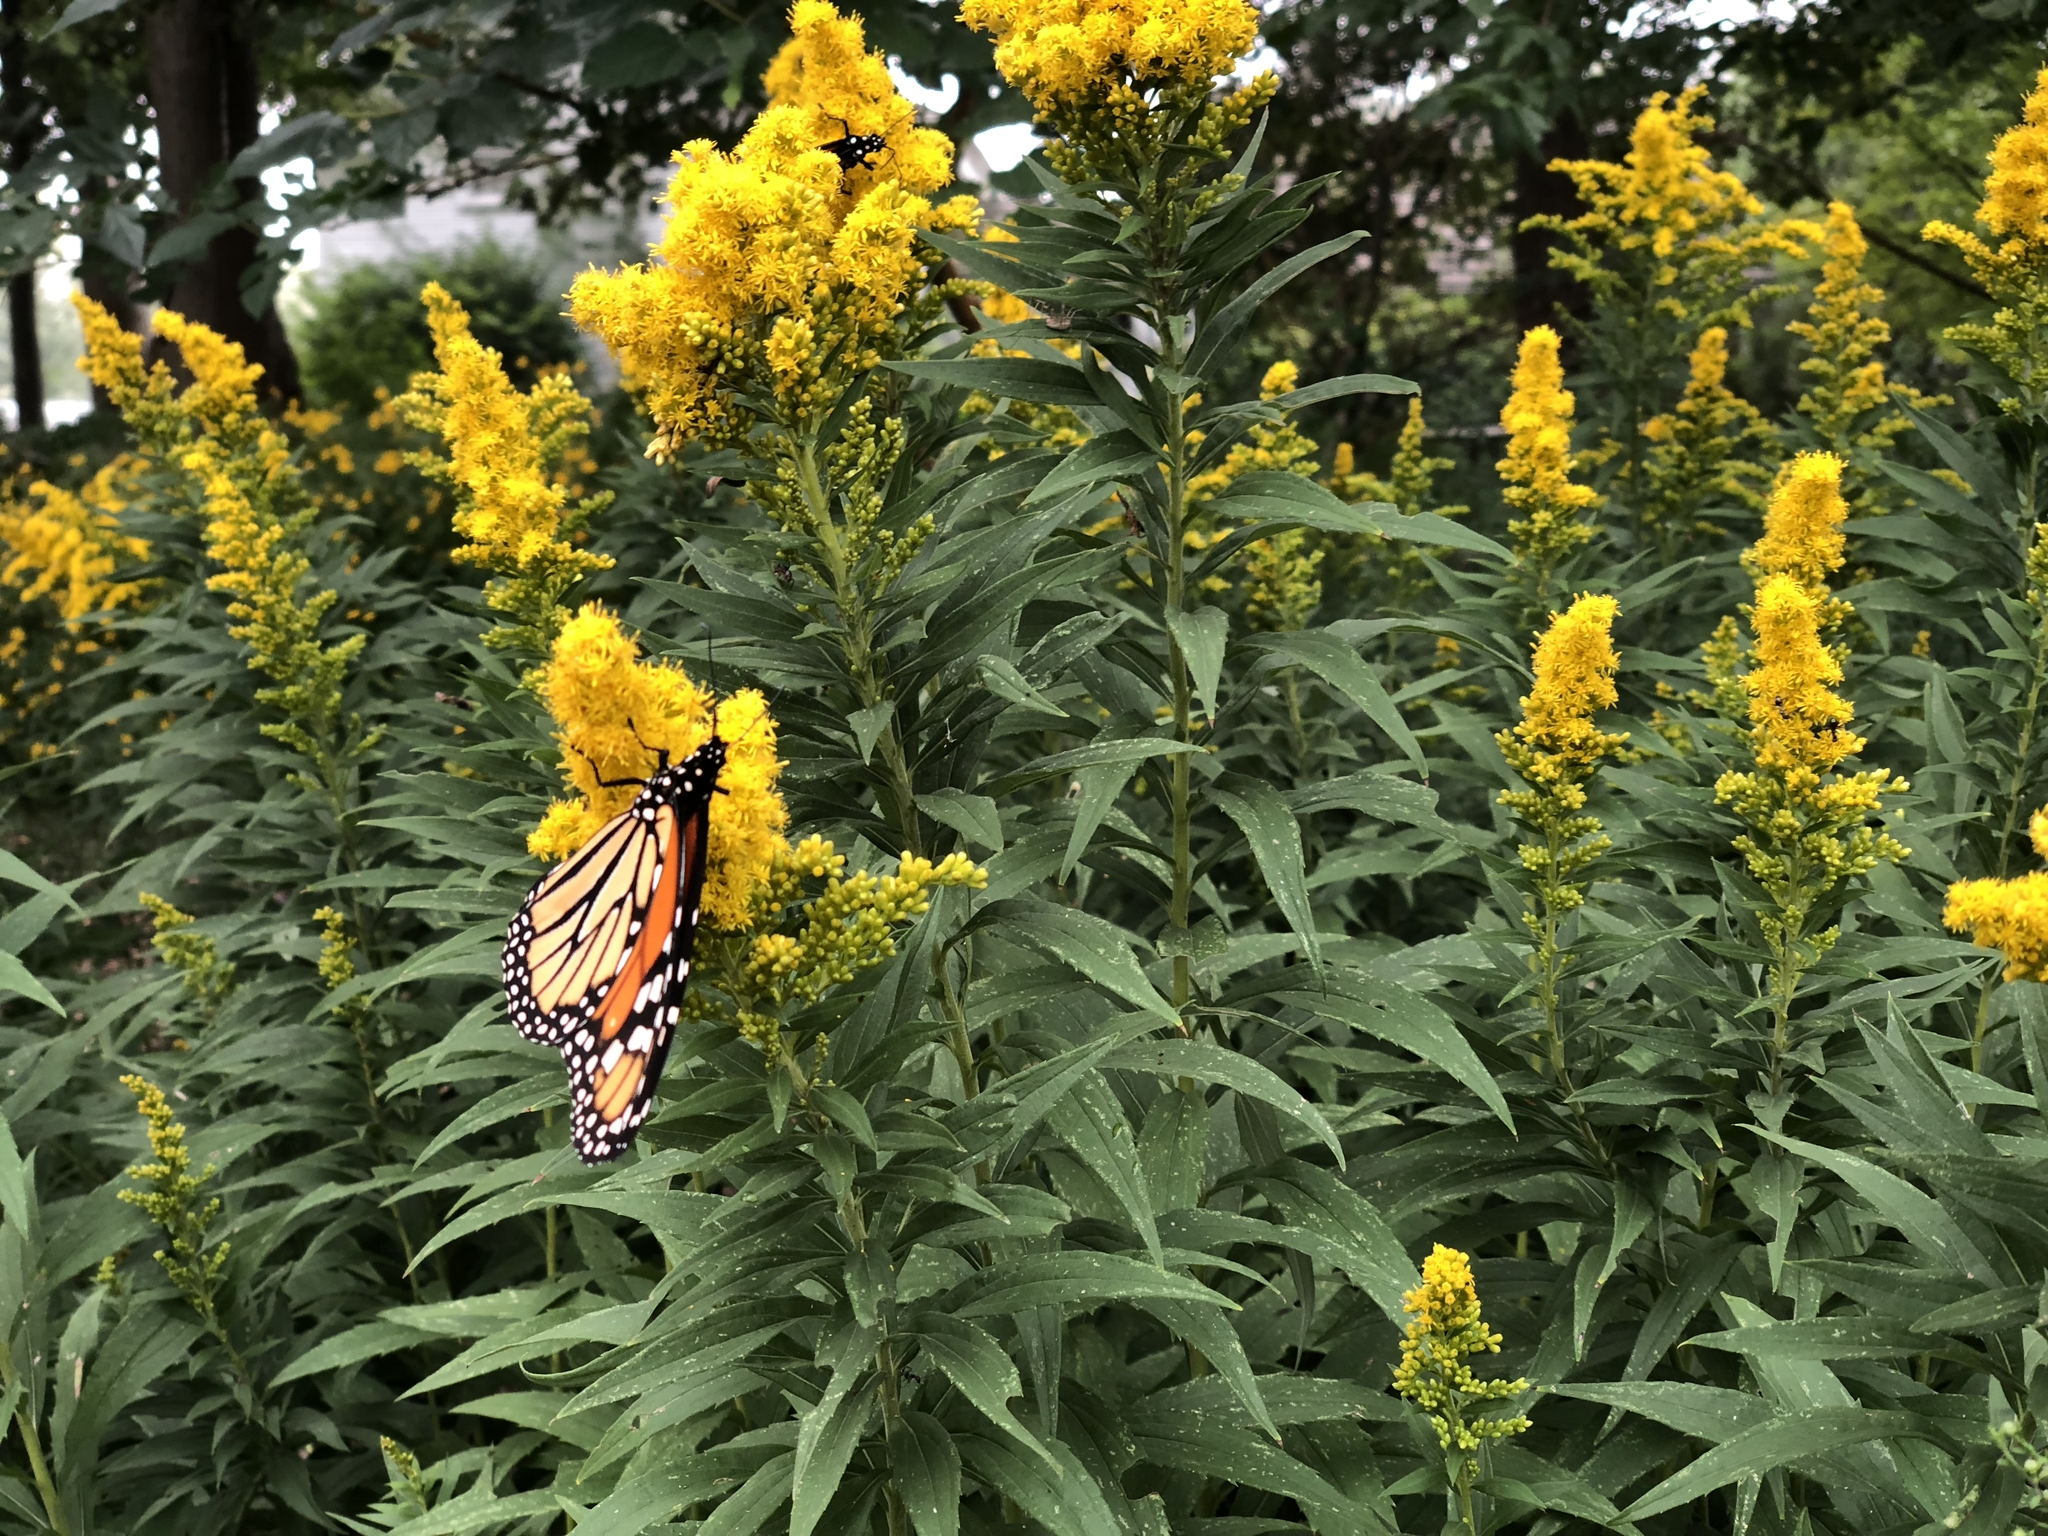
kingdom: Plantae
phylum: Tracheophyta
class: Magnoliopsida
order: Asterales
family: Asteraceae
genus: Solidago
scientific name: Solidago canadensis
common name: Canada goldenrod
